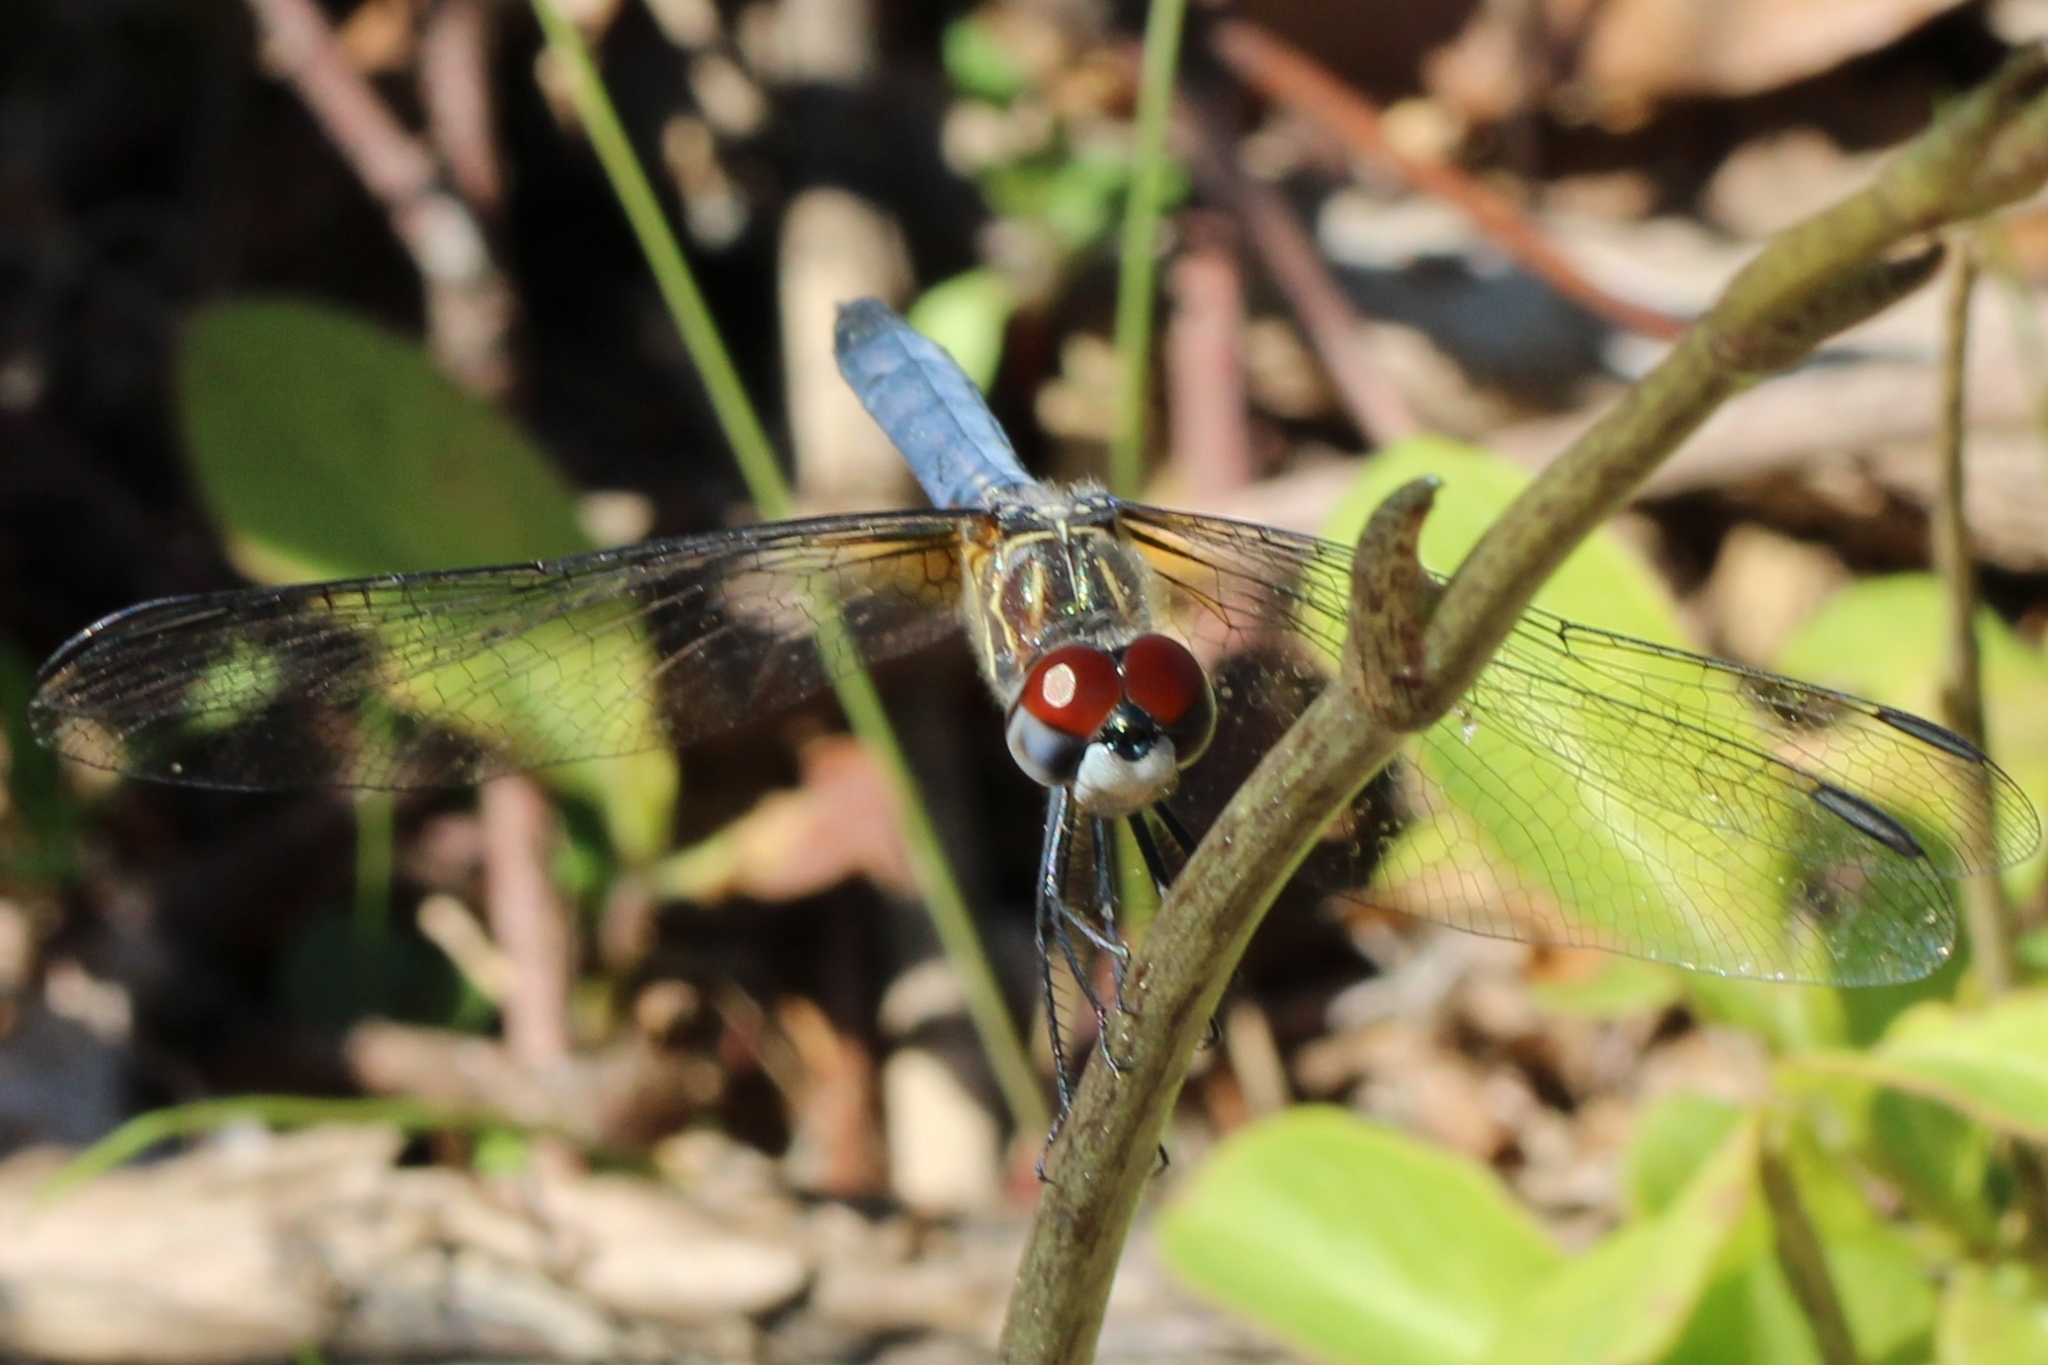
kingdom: Animalia
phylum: Arthropoda
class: Insecta
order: Odonata
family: Libellulidae
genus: Pachydiplax
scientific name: Pachydiplax longipennis
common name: Blue dasher
